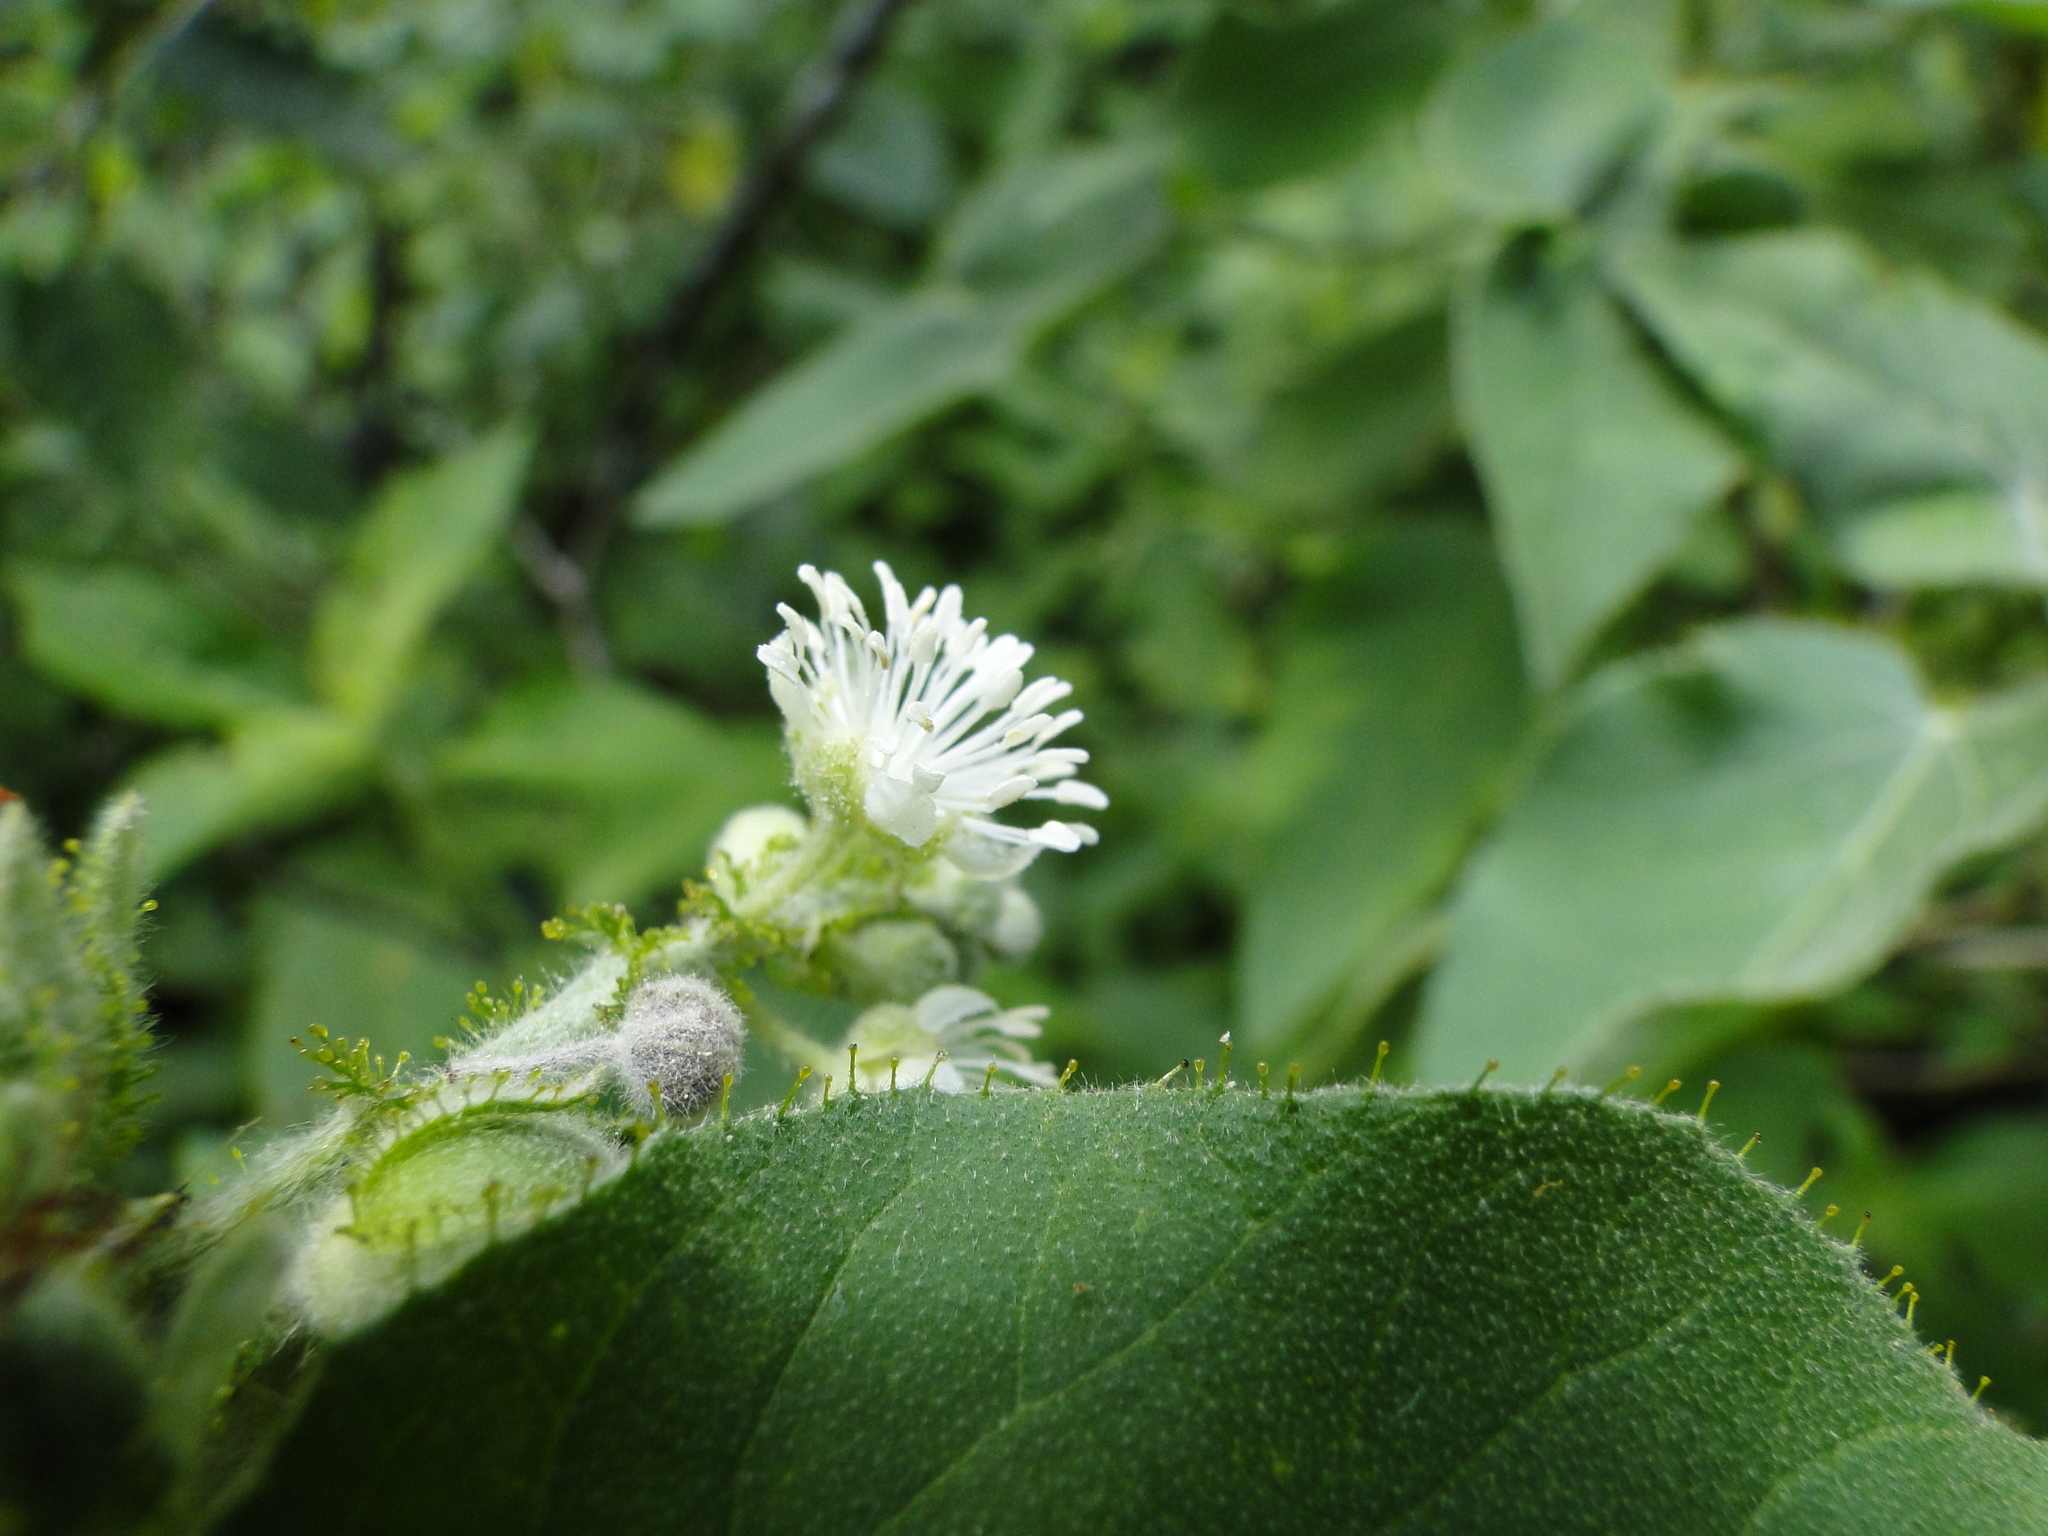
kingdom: Plantae
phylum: Tracheophyta
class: Magnoliopsida
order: Malpighiales
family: Euphorbiaceae
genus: Croton
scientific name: Croton ciliatoglandulifer
